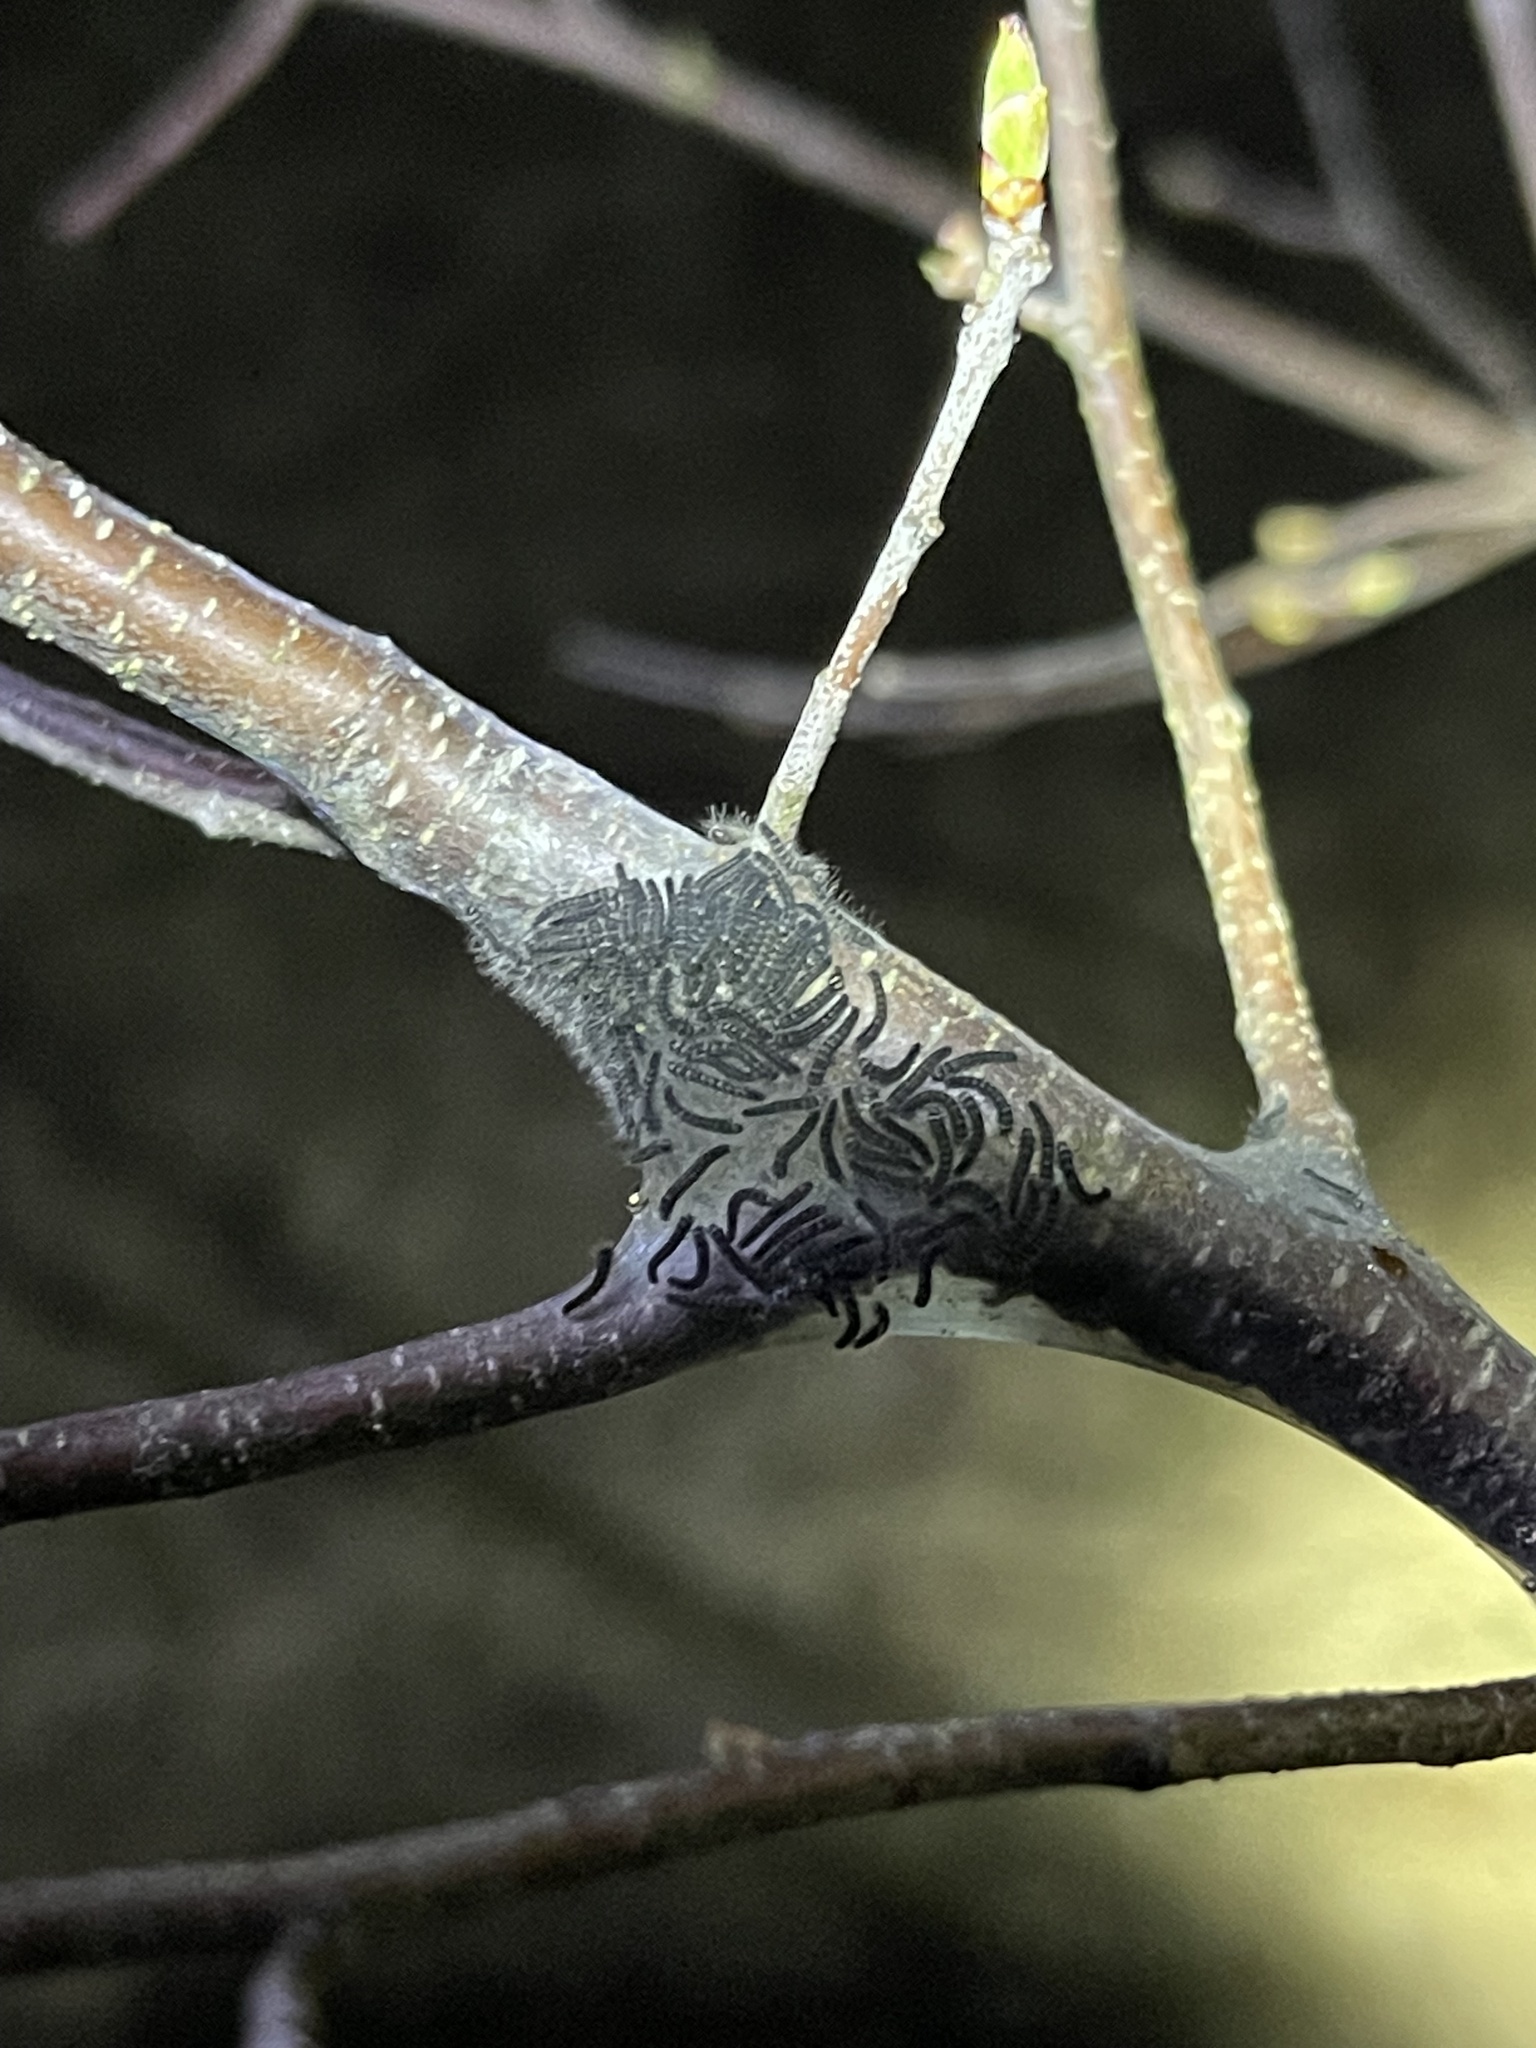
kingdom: Animalia
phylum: Arthropoda
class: Insecta
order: Lepidoptera
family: Lasiocampidae
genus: Malacosoma
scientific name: Malacosoma americana
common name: Eastern tent caterpillar moth
